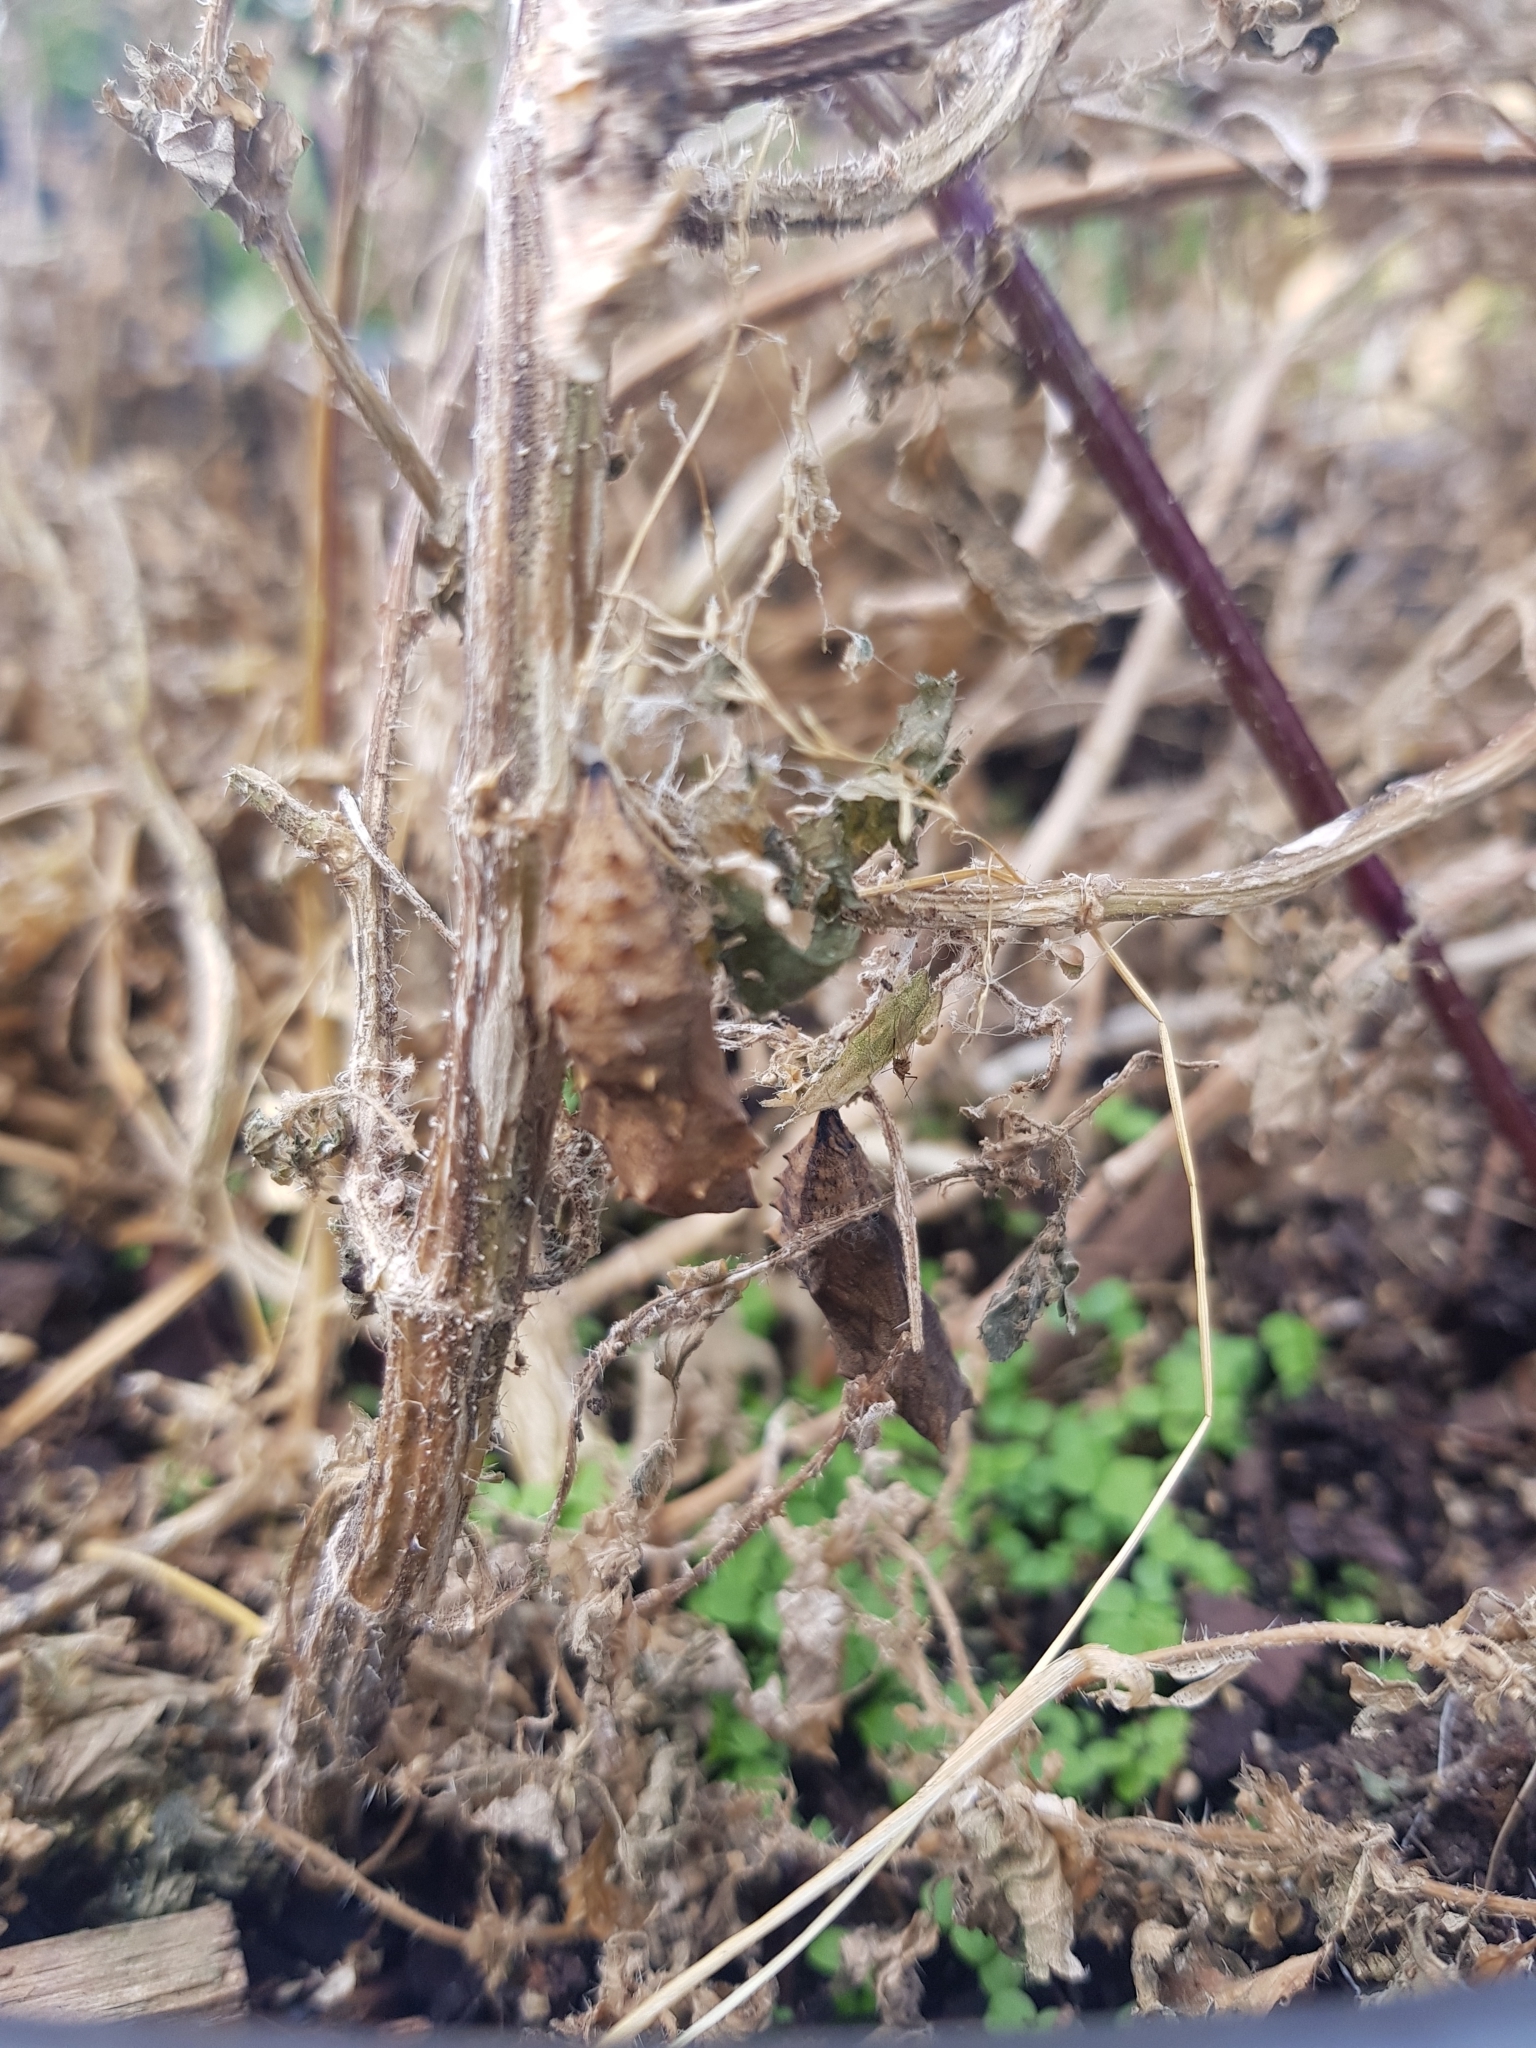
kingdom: Animalia
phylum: Arthropoda
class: Insecta
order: Lepidoptera
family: Nymphalidae
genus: Vanessa
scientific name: Vanessa itea
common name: Yellow admiral
